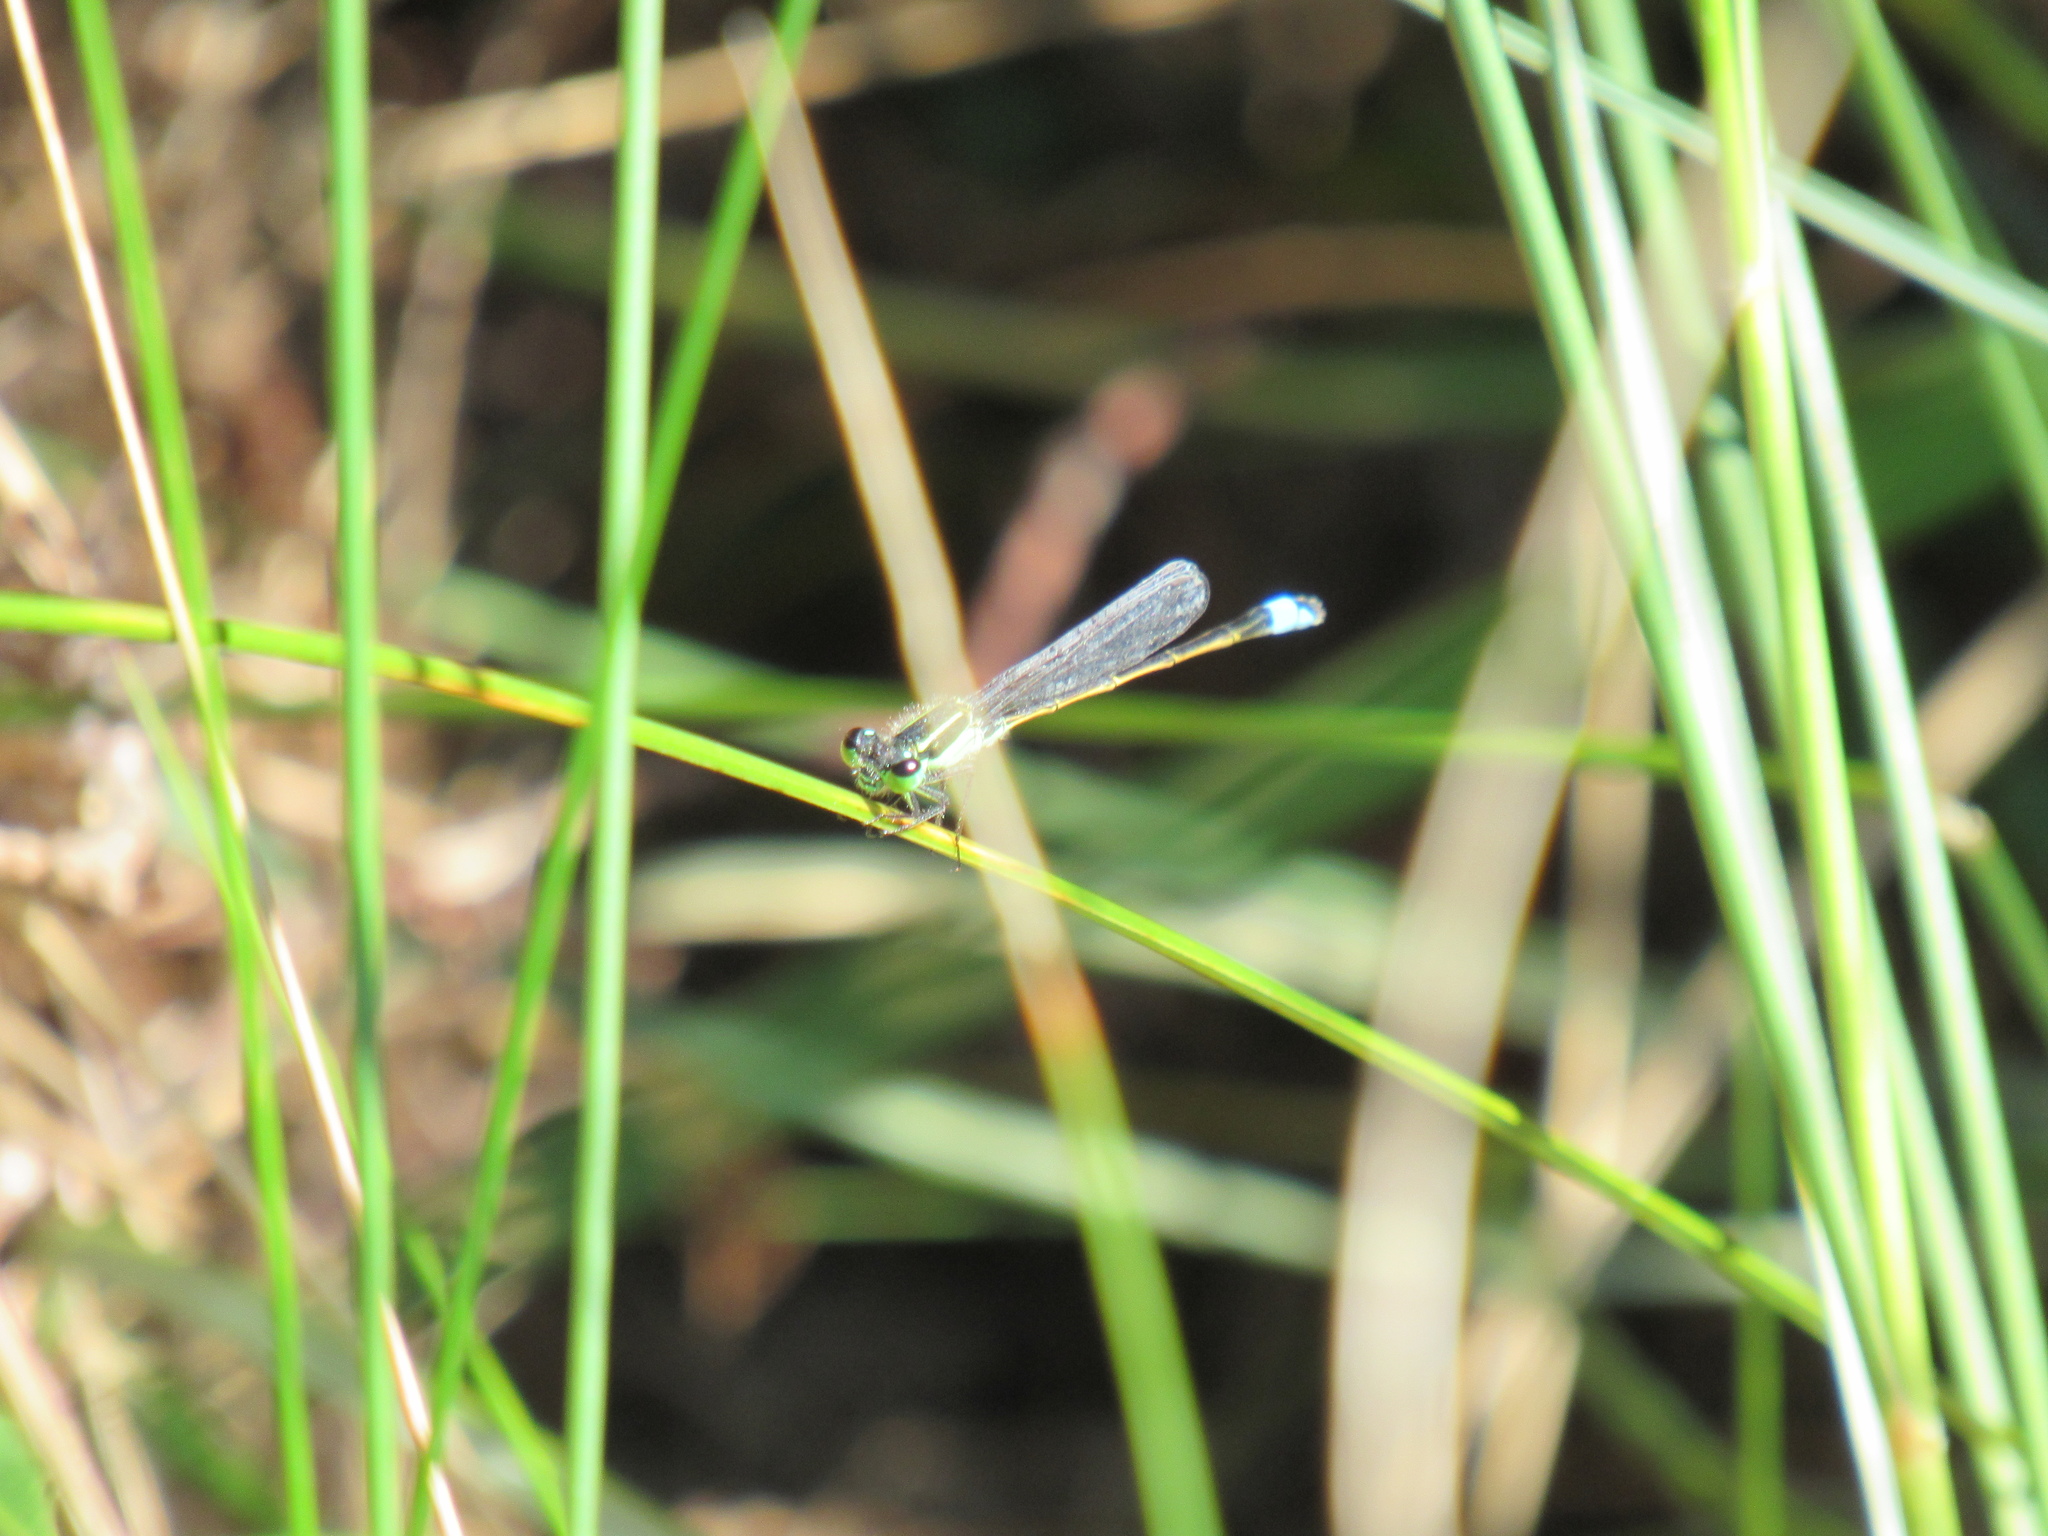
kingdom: Animalia
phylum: Arthropoda
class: Insecta
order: Odonata
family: Coenagrionidae
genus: Ischnura
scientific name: Ischnura ramburii
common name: Rambur's forktail
